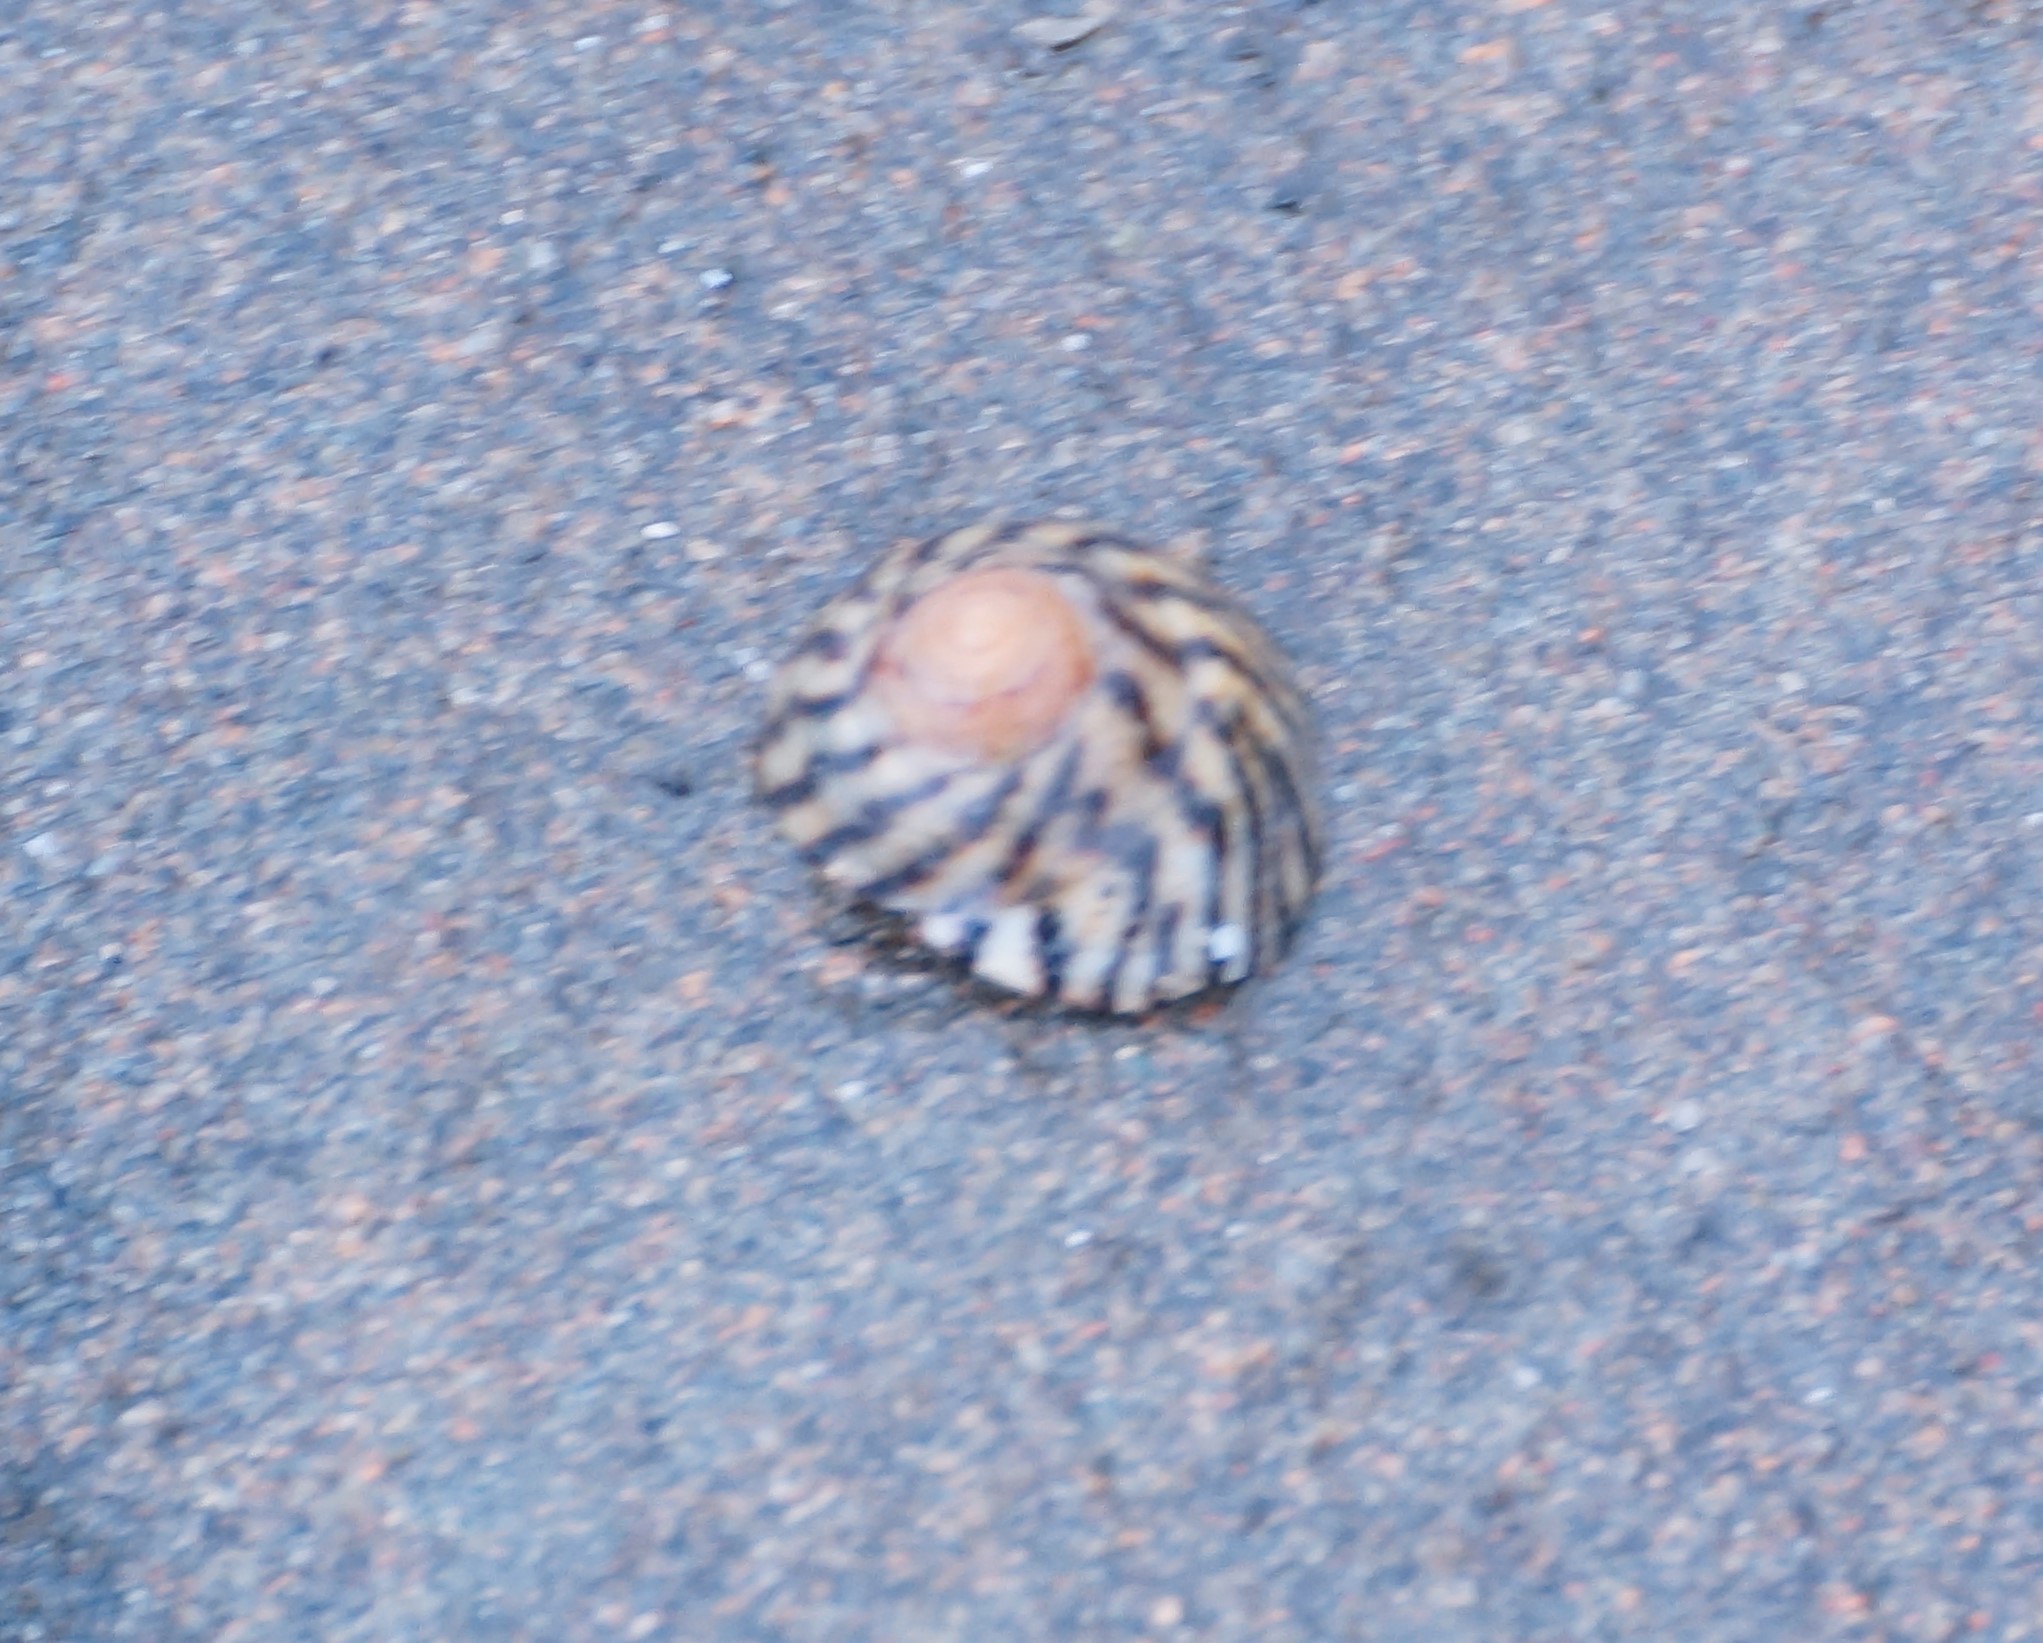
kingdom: Animalia
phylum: Mollusca
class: Gastropoda
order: Littorinimorpha
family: Littorinidae
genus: Bembicium
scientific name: Bembicium nanum
